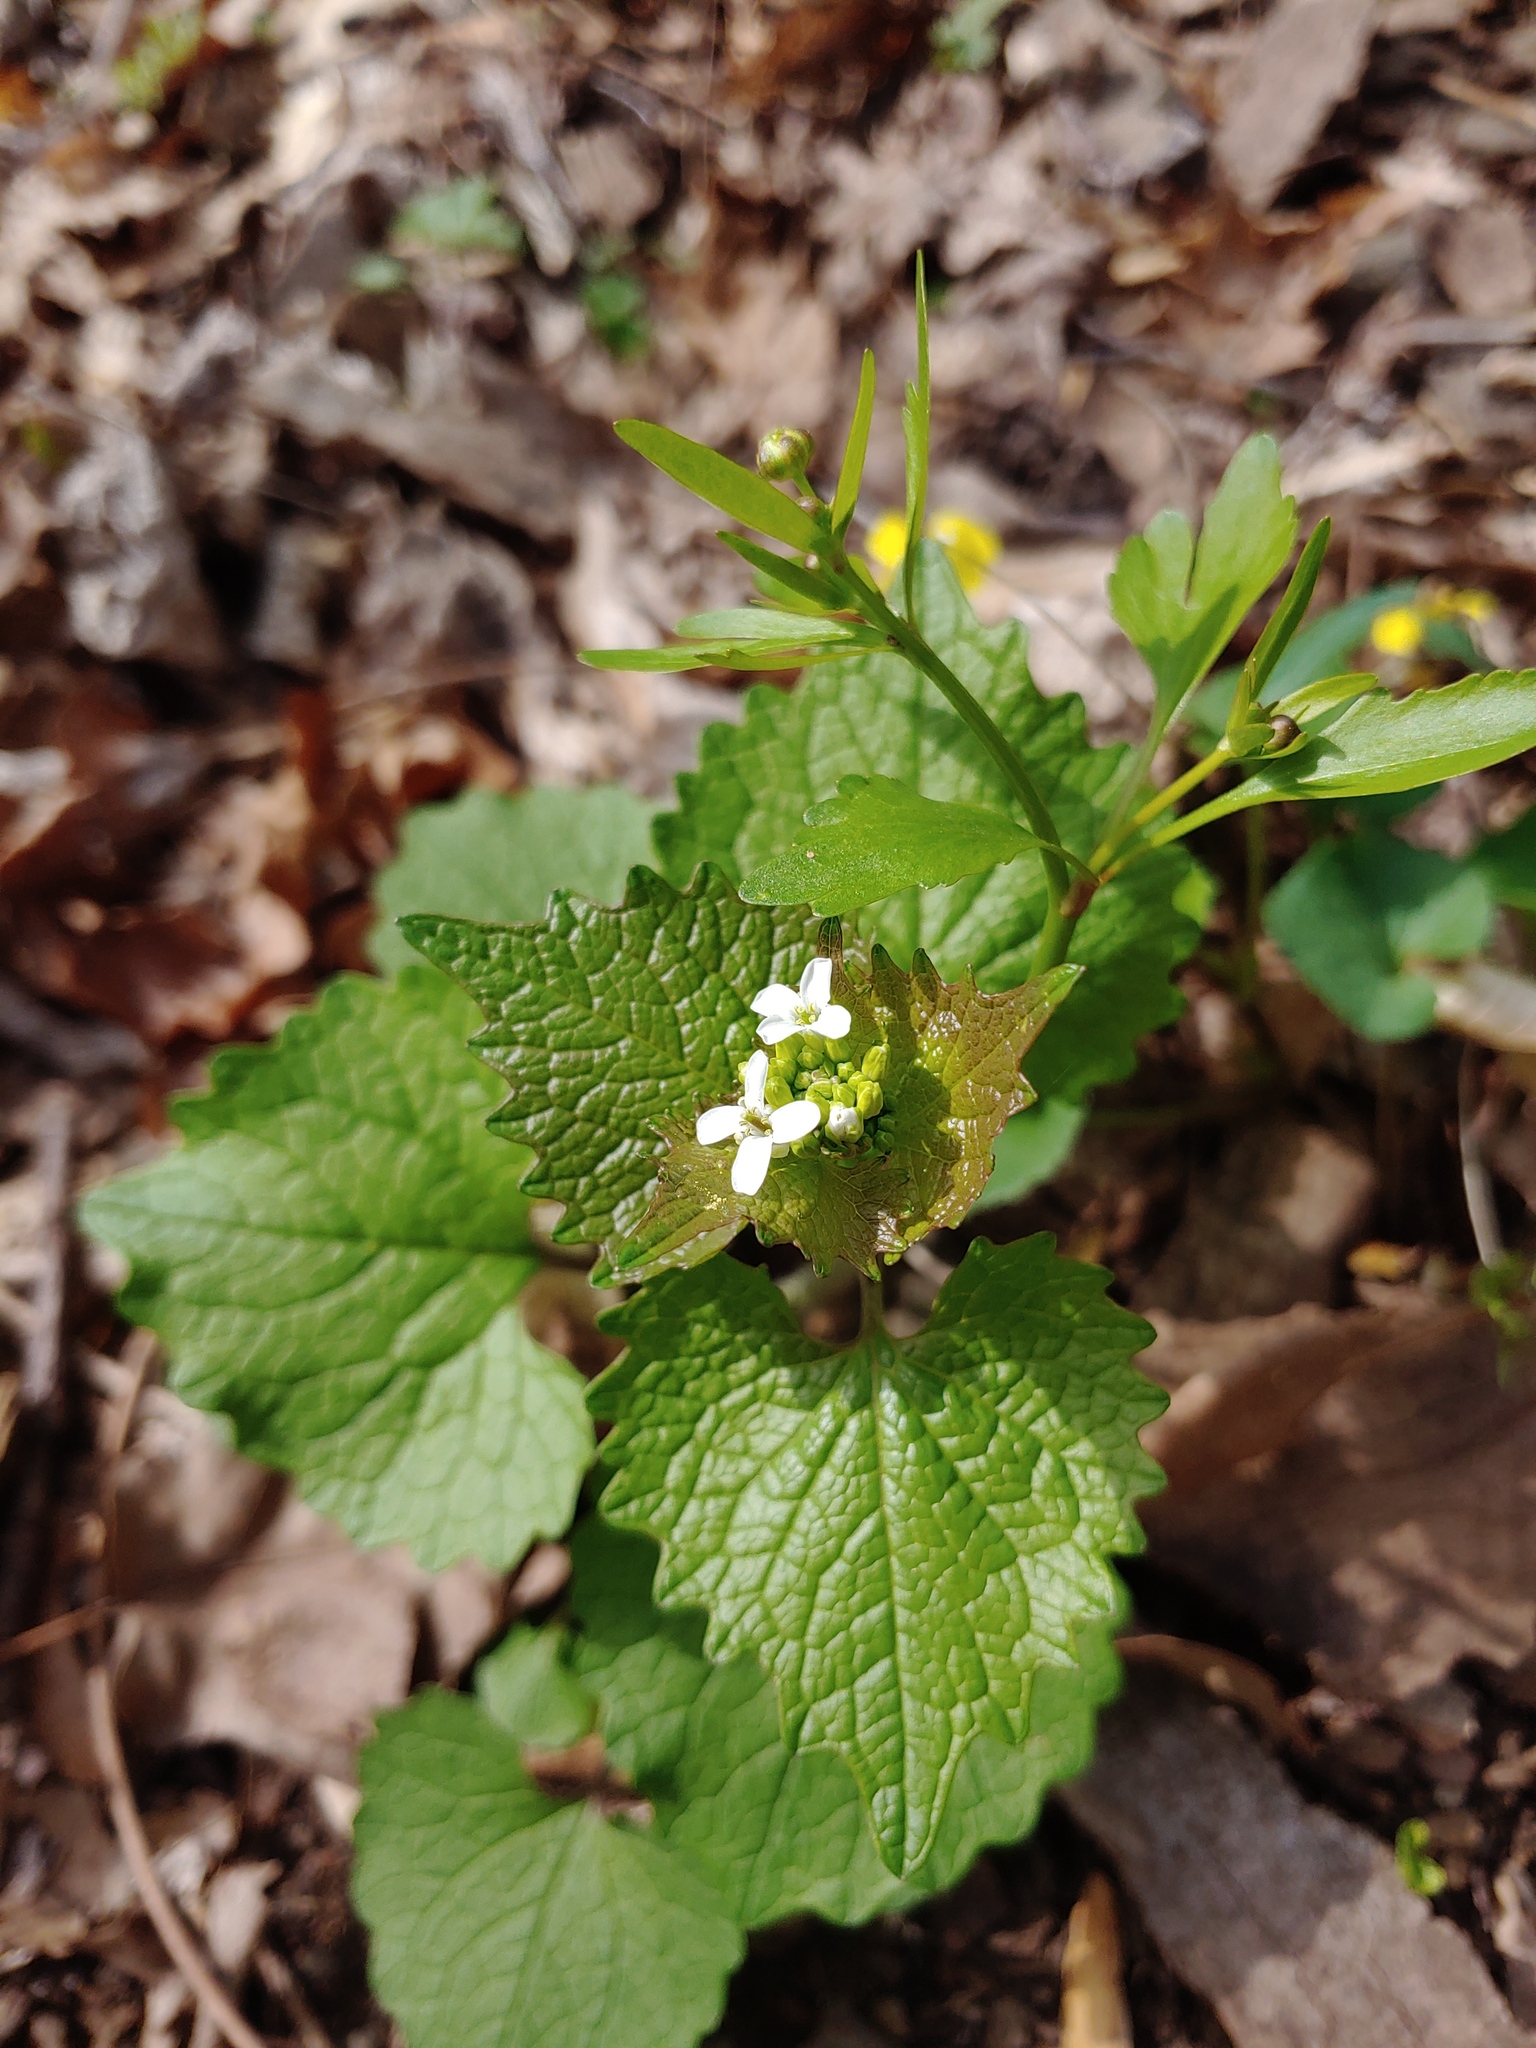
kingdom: Plantae
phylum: Tracheophyta
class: Magnoliopsida
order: Brassicales
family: Brassicaceae
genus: Alliaria
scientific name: Alliaria petiolata
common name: Garlic mustard
